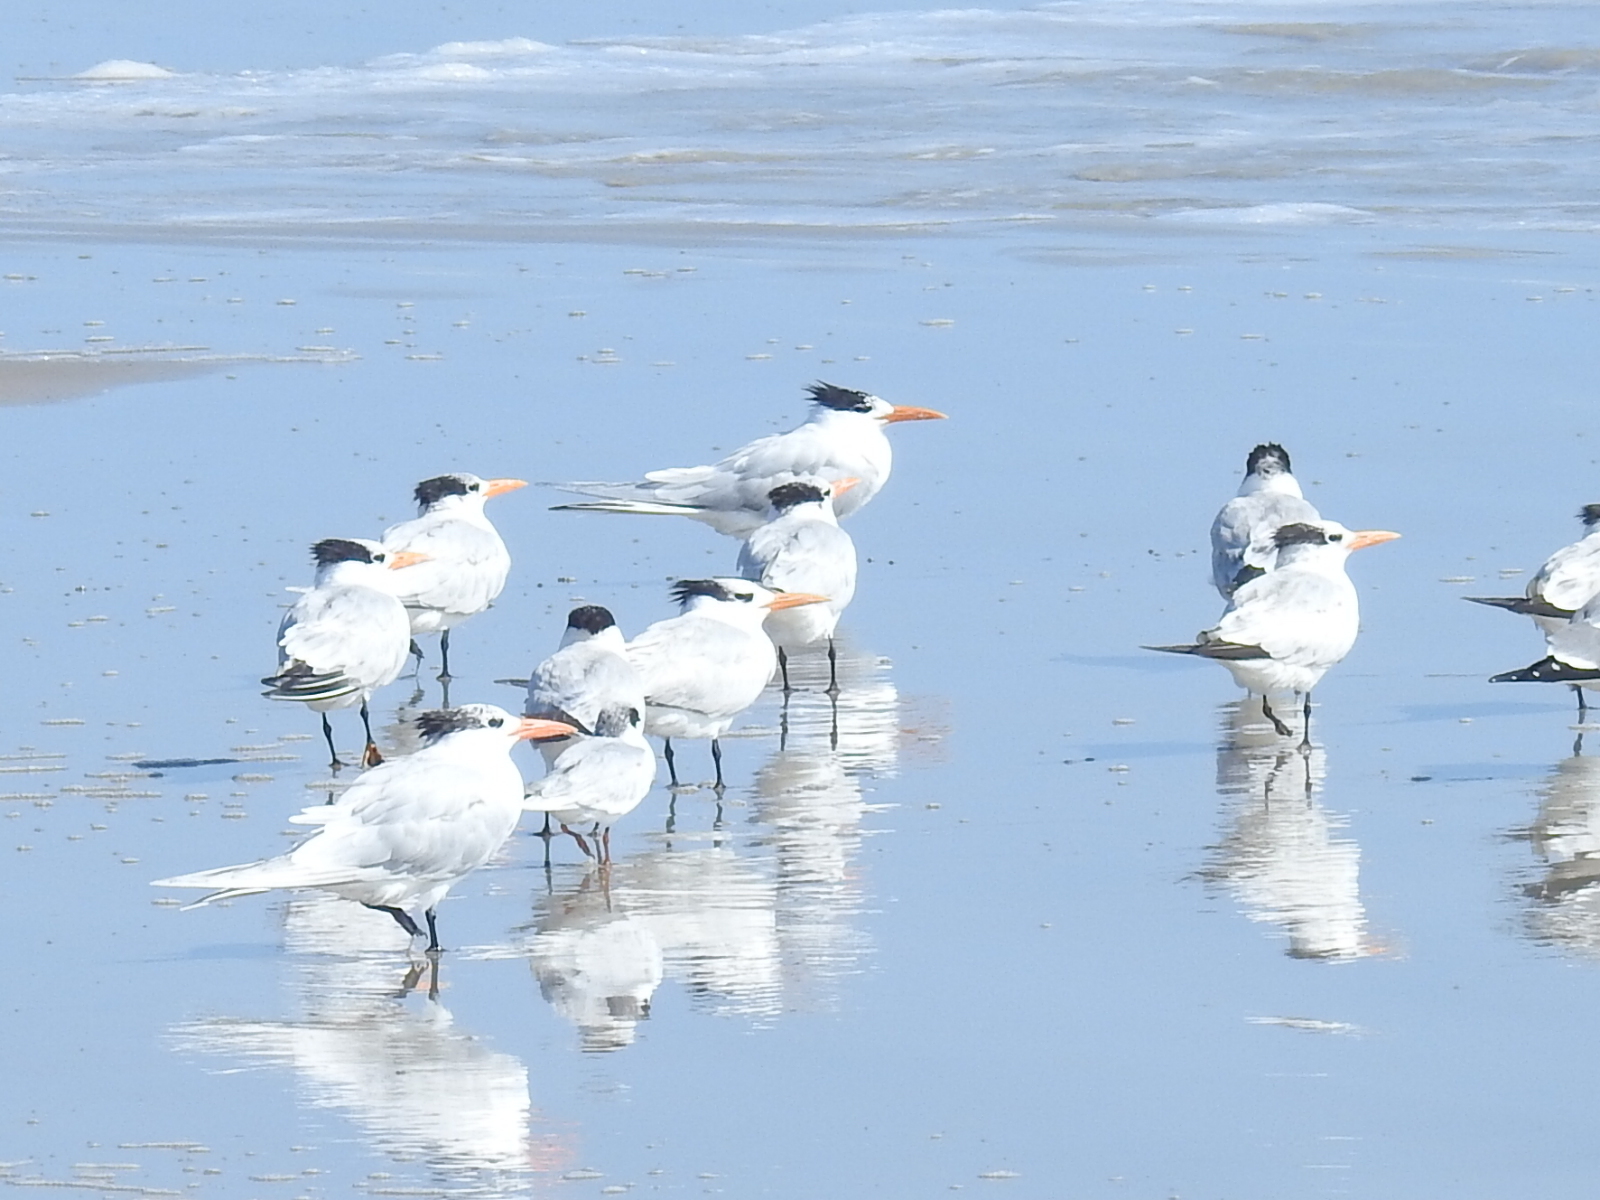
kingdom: Animalia
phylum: Chordata
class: Aves
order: Charadriiformes
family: Laridae
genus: Thalasseus
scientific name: Thalasseus maximus
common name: Royal tern
